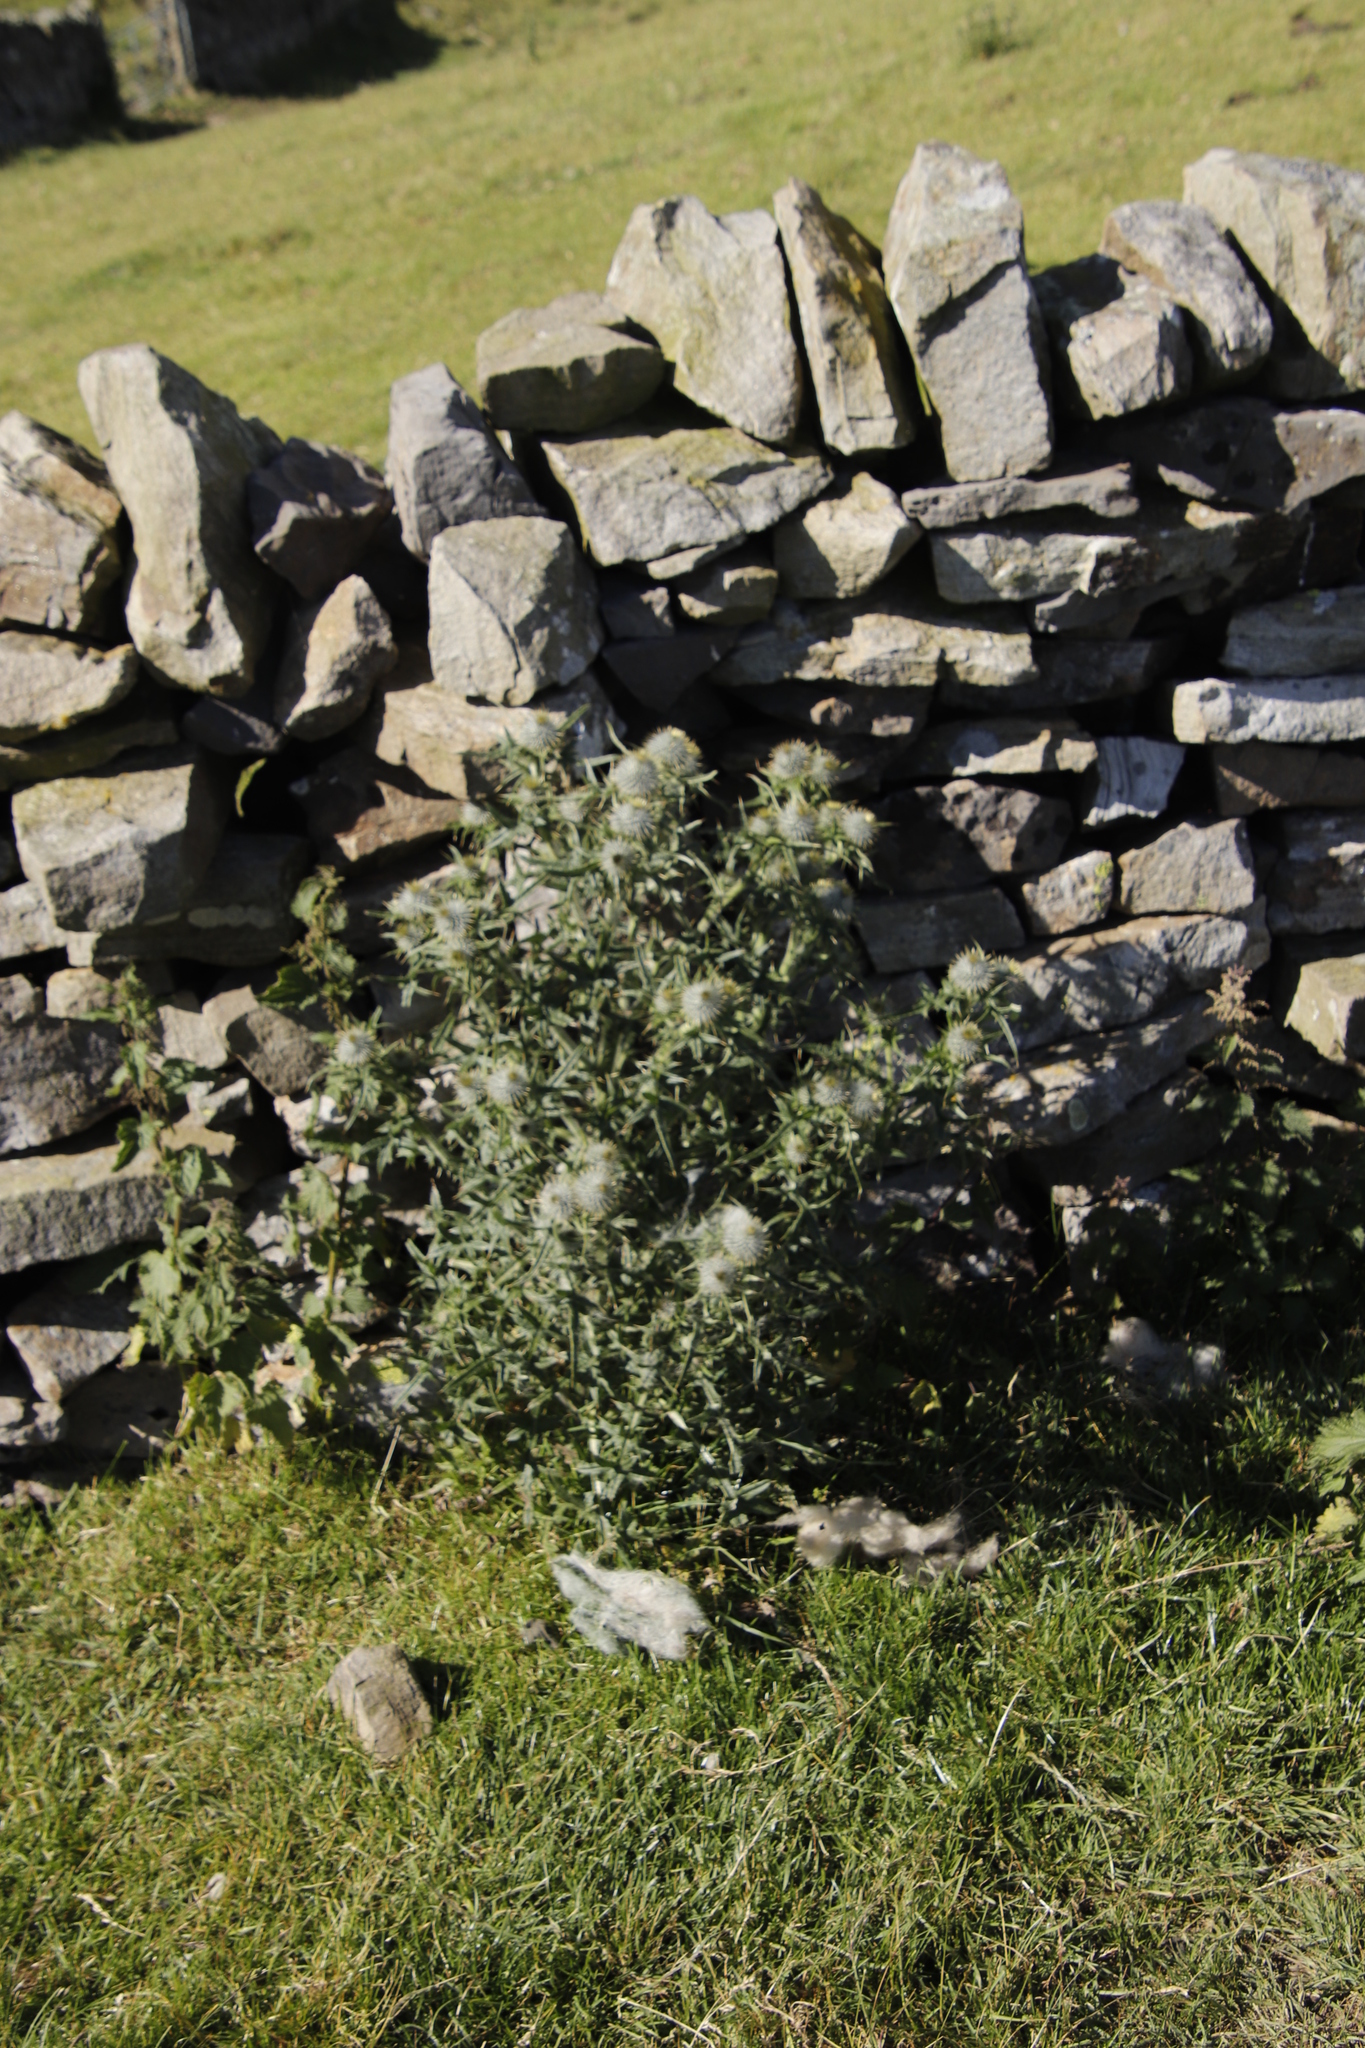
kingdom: Plantae
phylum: Tracheophyta
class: Magnoliopsida
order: Asterales
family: Asteraceae
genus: Cirsium
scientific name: Cirsium vulgare
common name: Bull thistle
